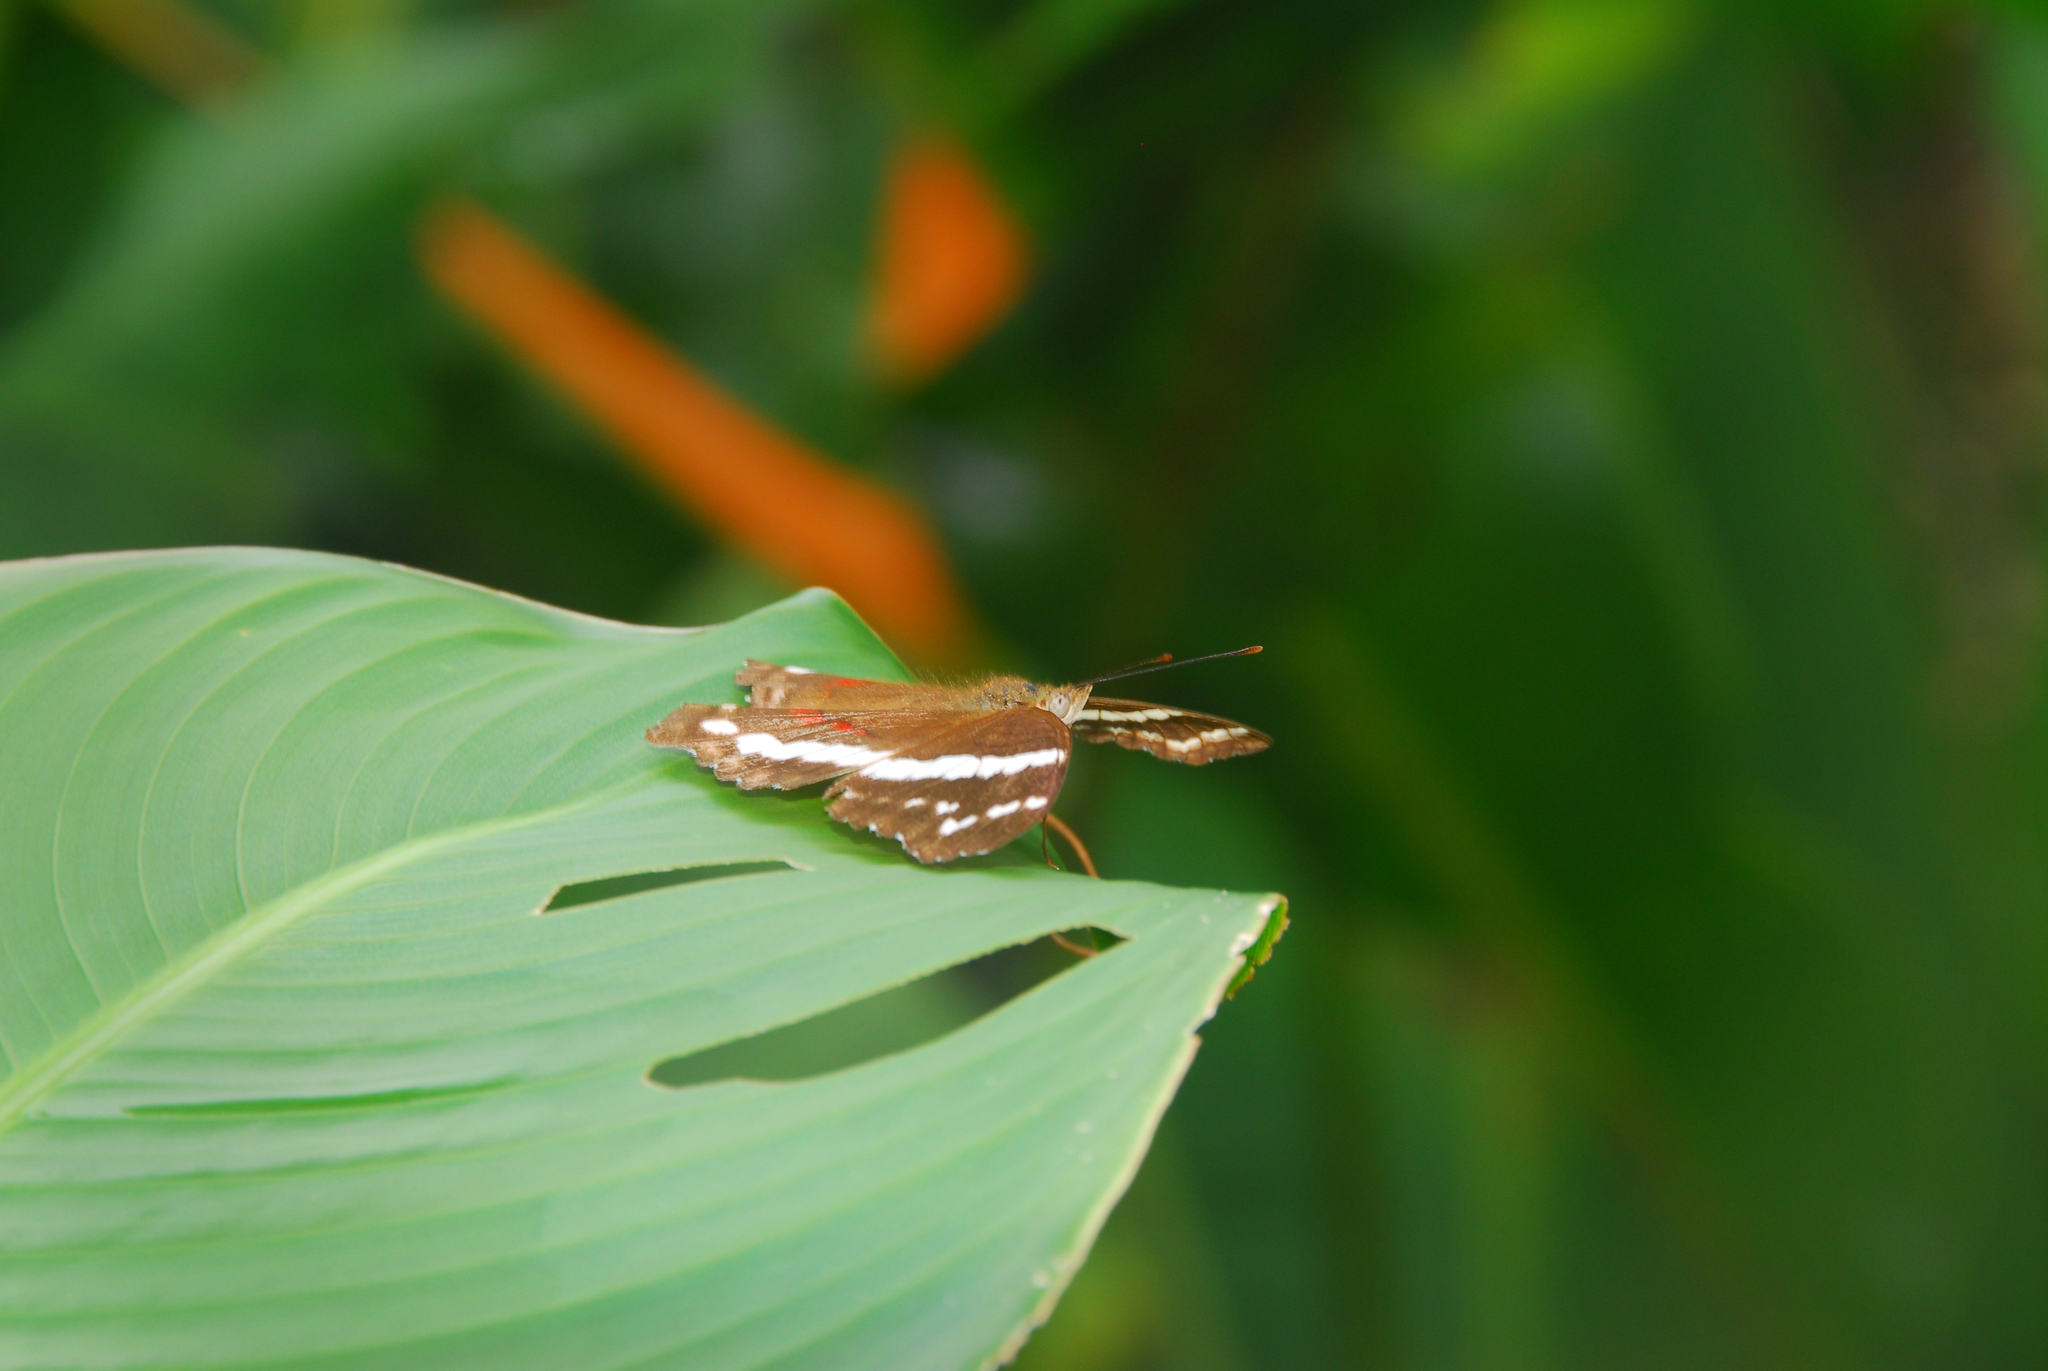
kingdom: Animalia
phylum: Arthropoda
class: Insecta
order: Lepidoptera
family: Nymphalidae
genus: Anartia
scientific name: Anartia fatima
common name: Banded peacock
